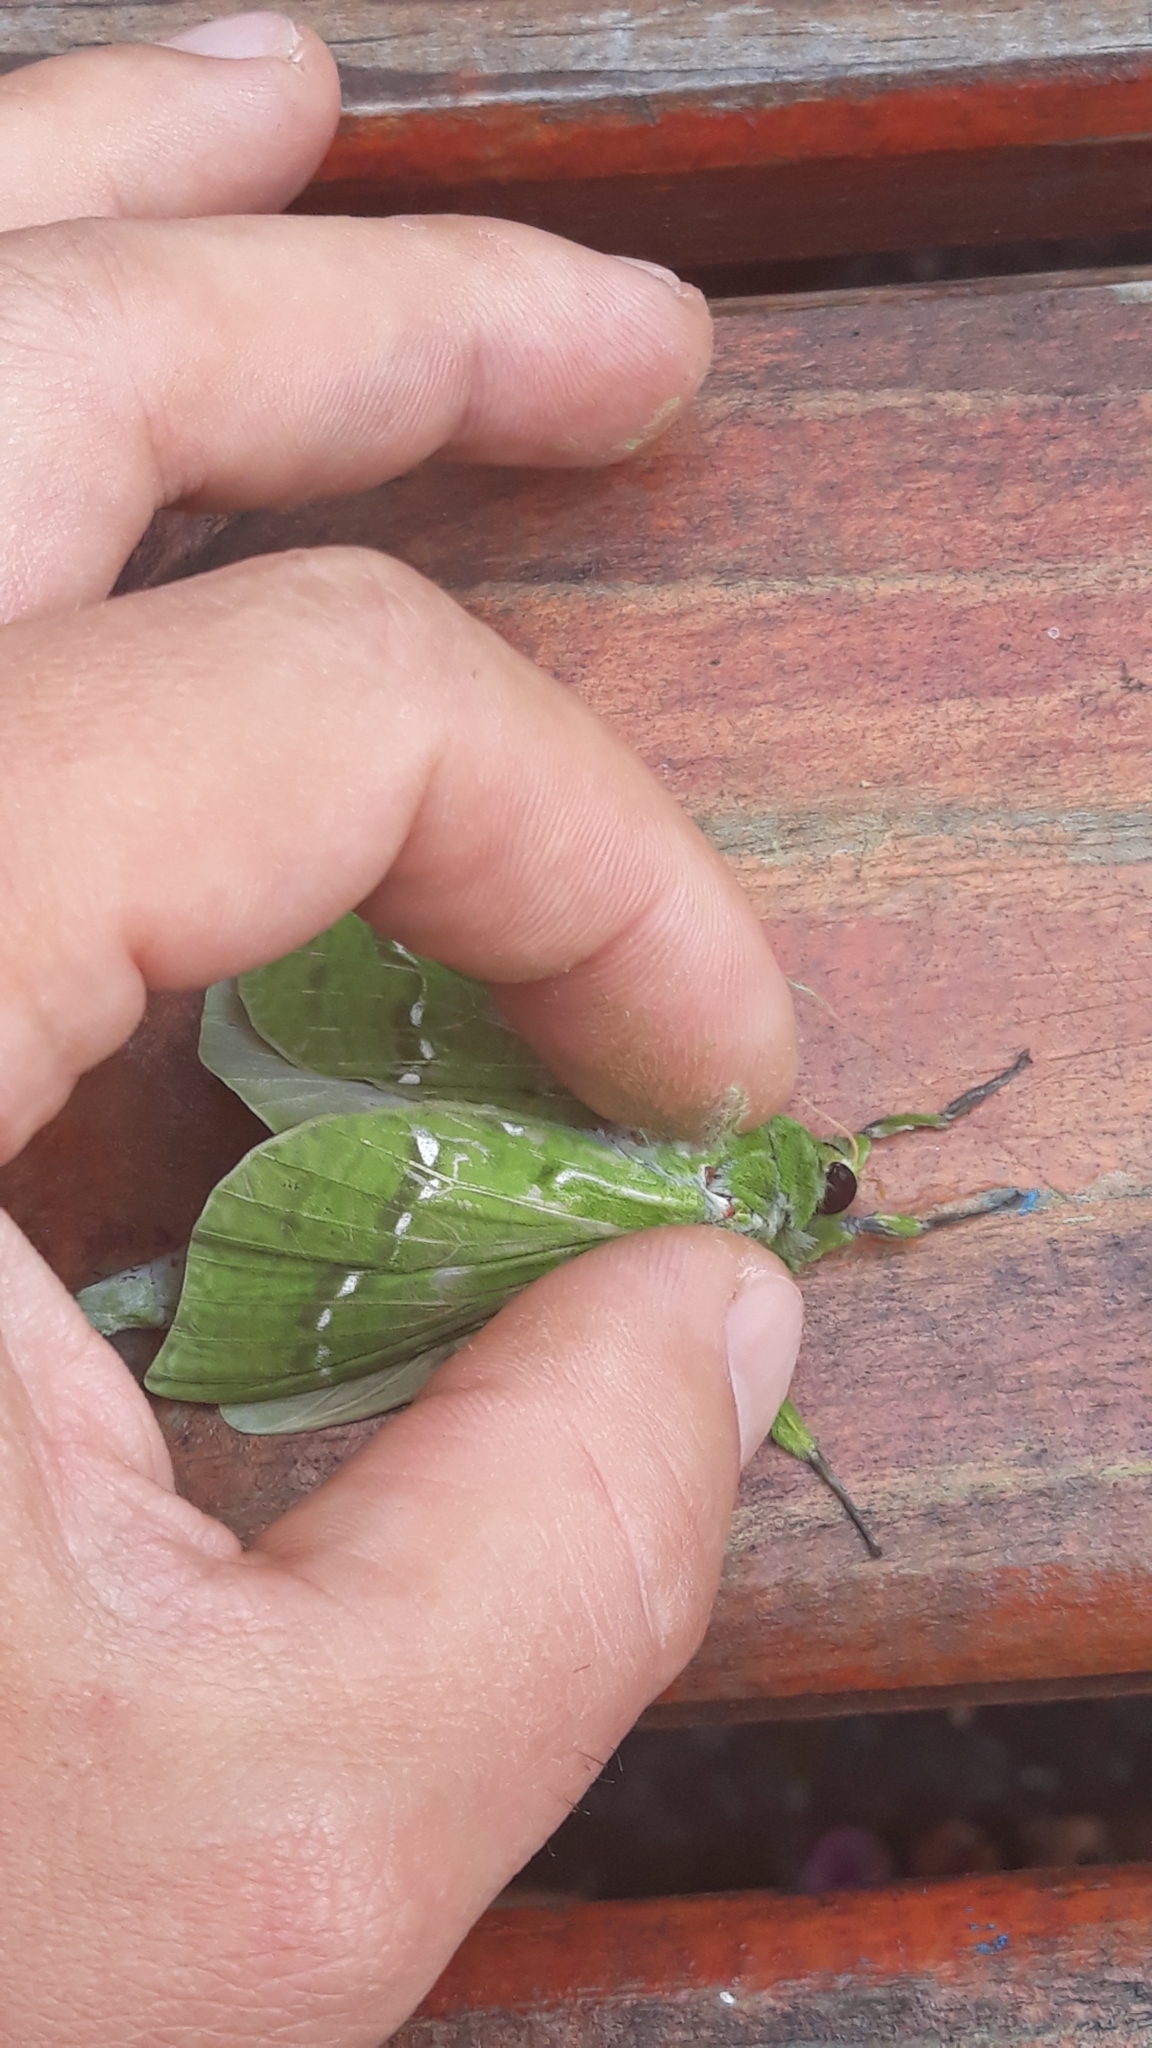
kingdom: Animalia
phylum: Arthropoda
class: Insecta
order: Lepidoptera
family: Hepialidae
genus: Aenetus
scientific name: Aenetus virescens
